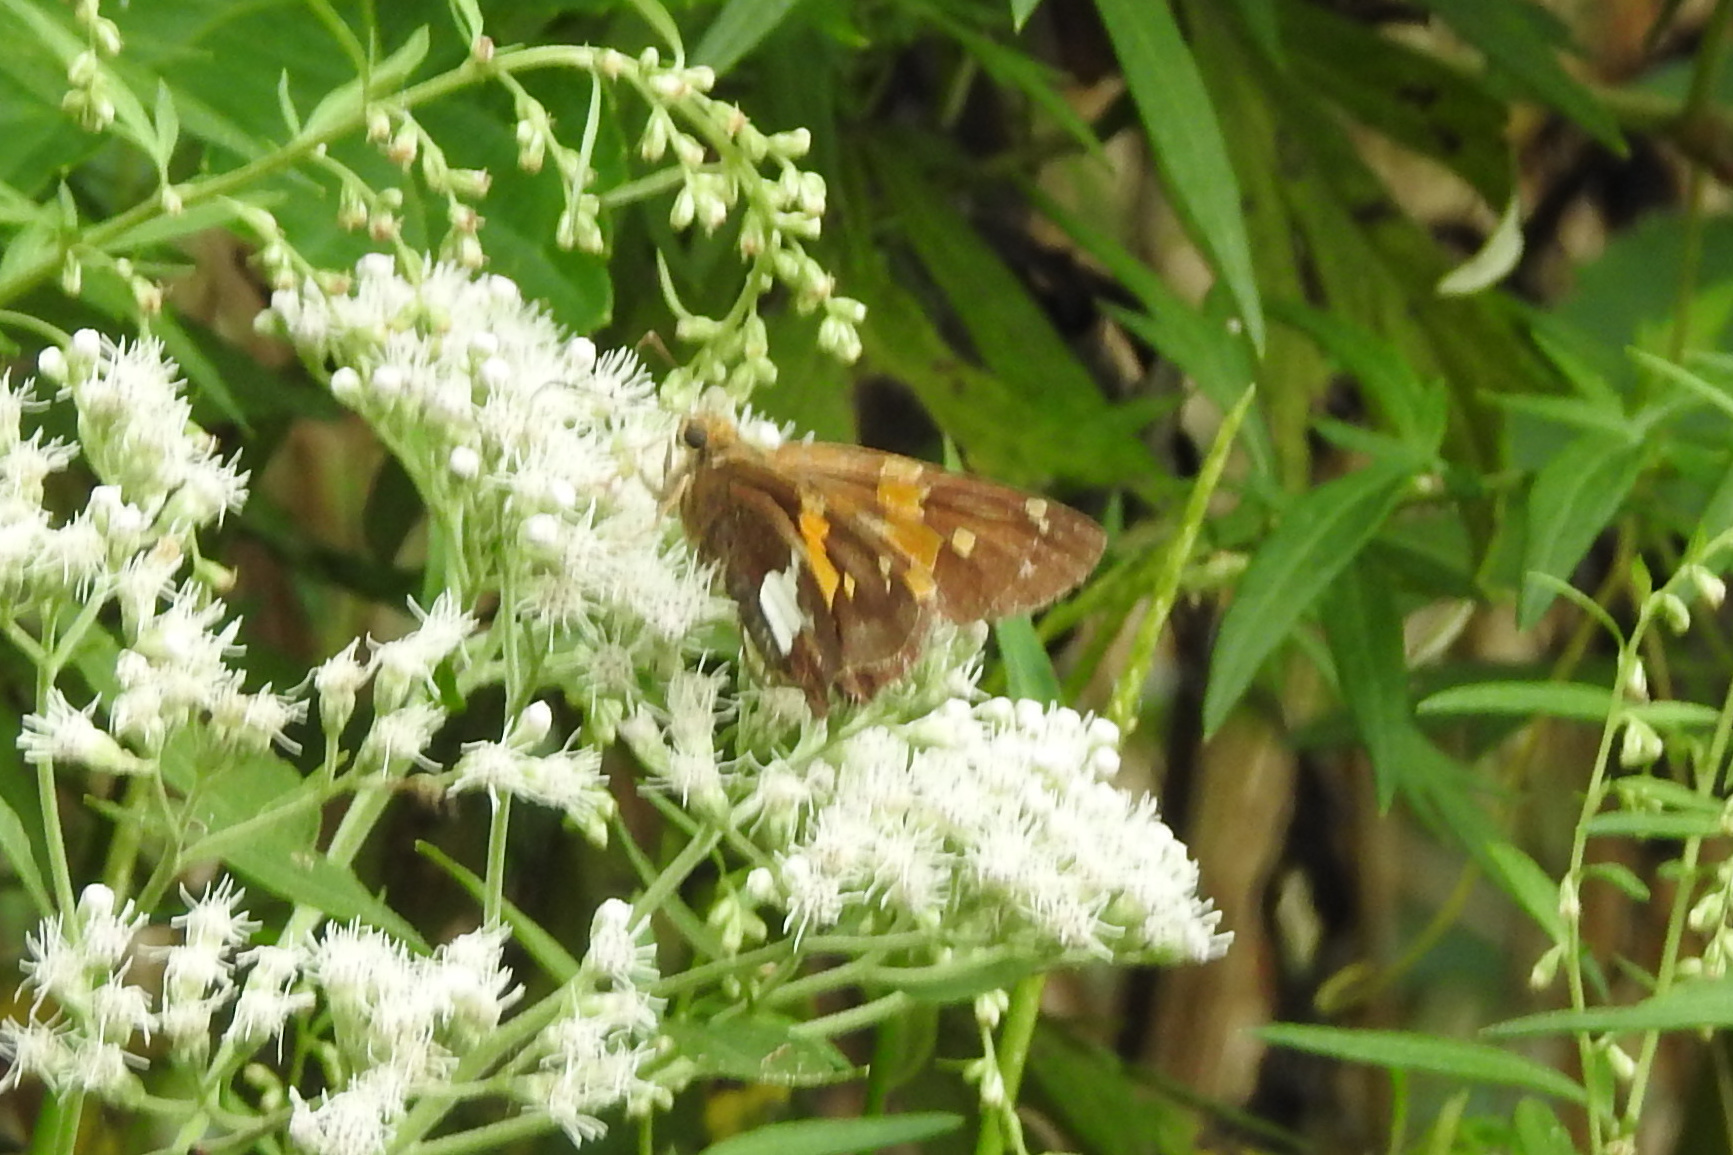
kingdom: Animalia
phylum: Arthropoda
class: Insecta
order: Lepidoptera
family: Hesperiidae
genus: Epargyreus
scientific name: Epargyreus clarus
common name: Silver-spotted skipper
